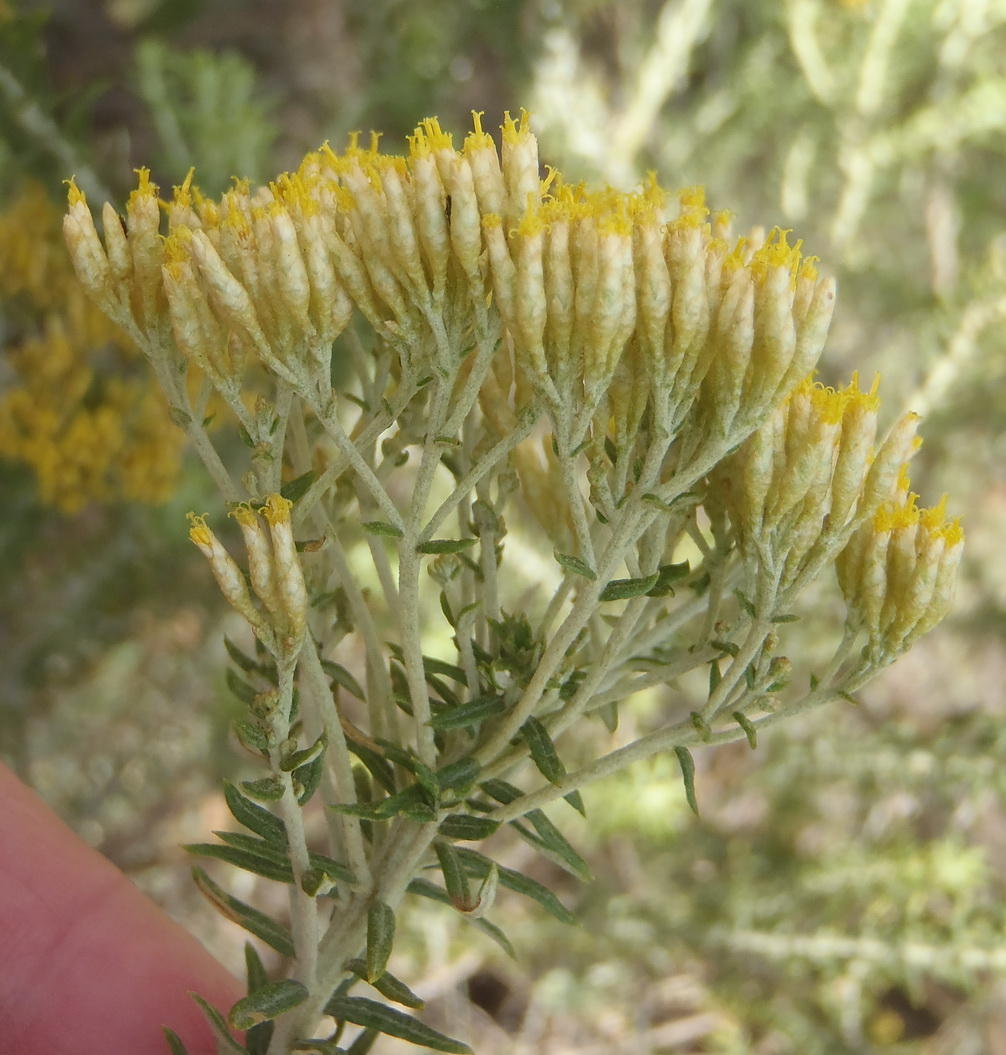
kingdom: Plantae
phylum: Tracheophyta
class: Magnoliopsida
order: Asterales
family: Asteraceae
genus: Helichrysum
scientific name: Helichrysum kraussii
